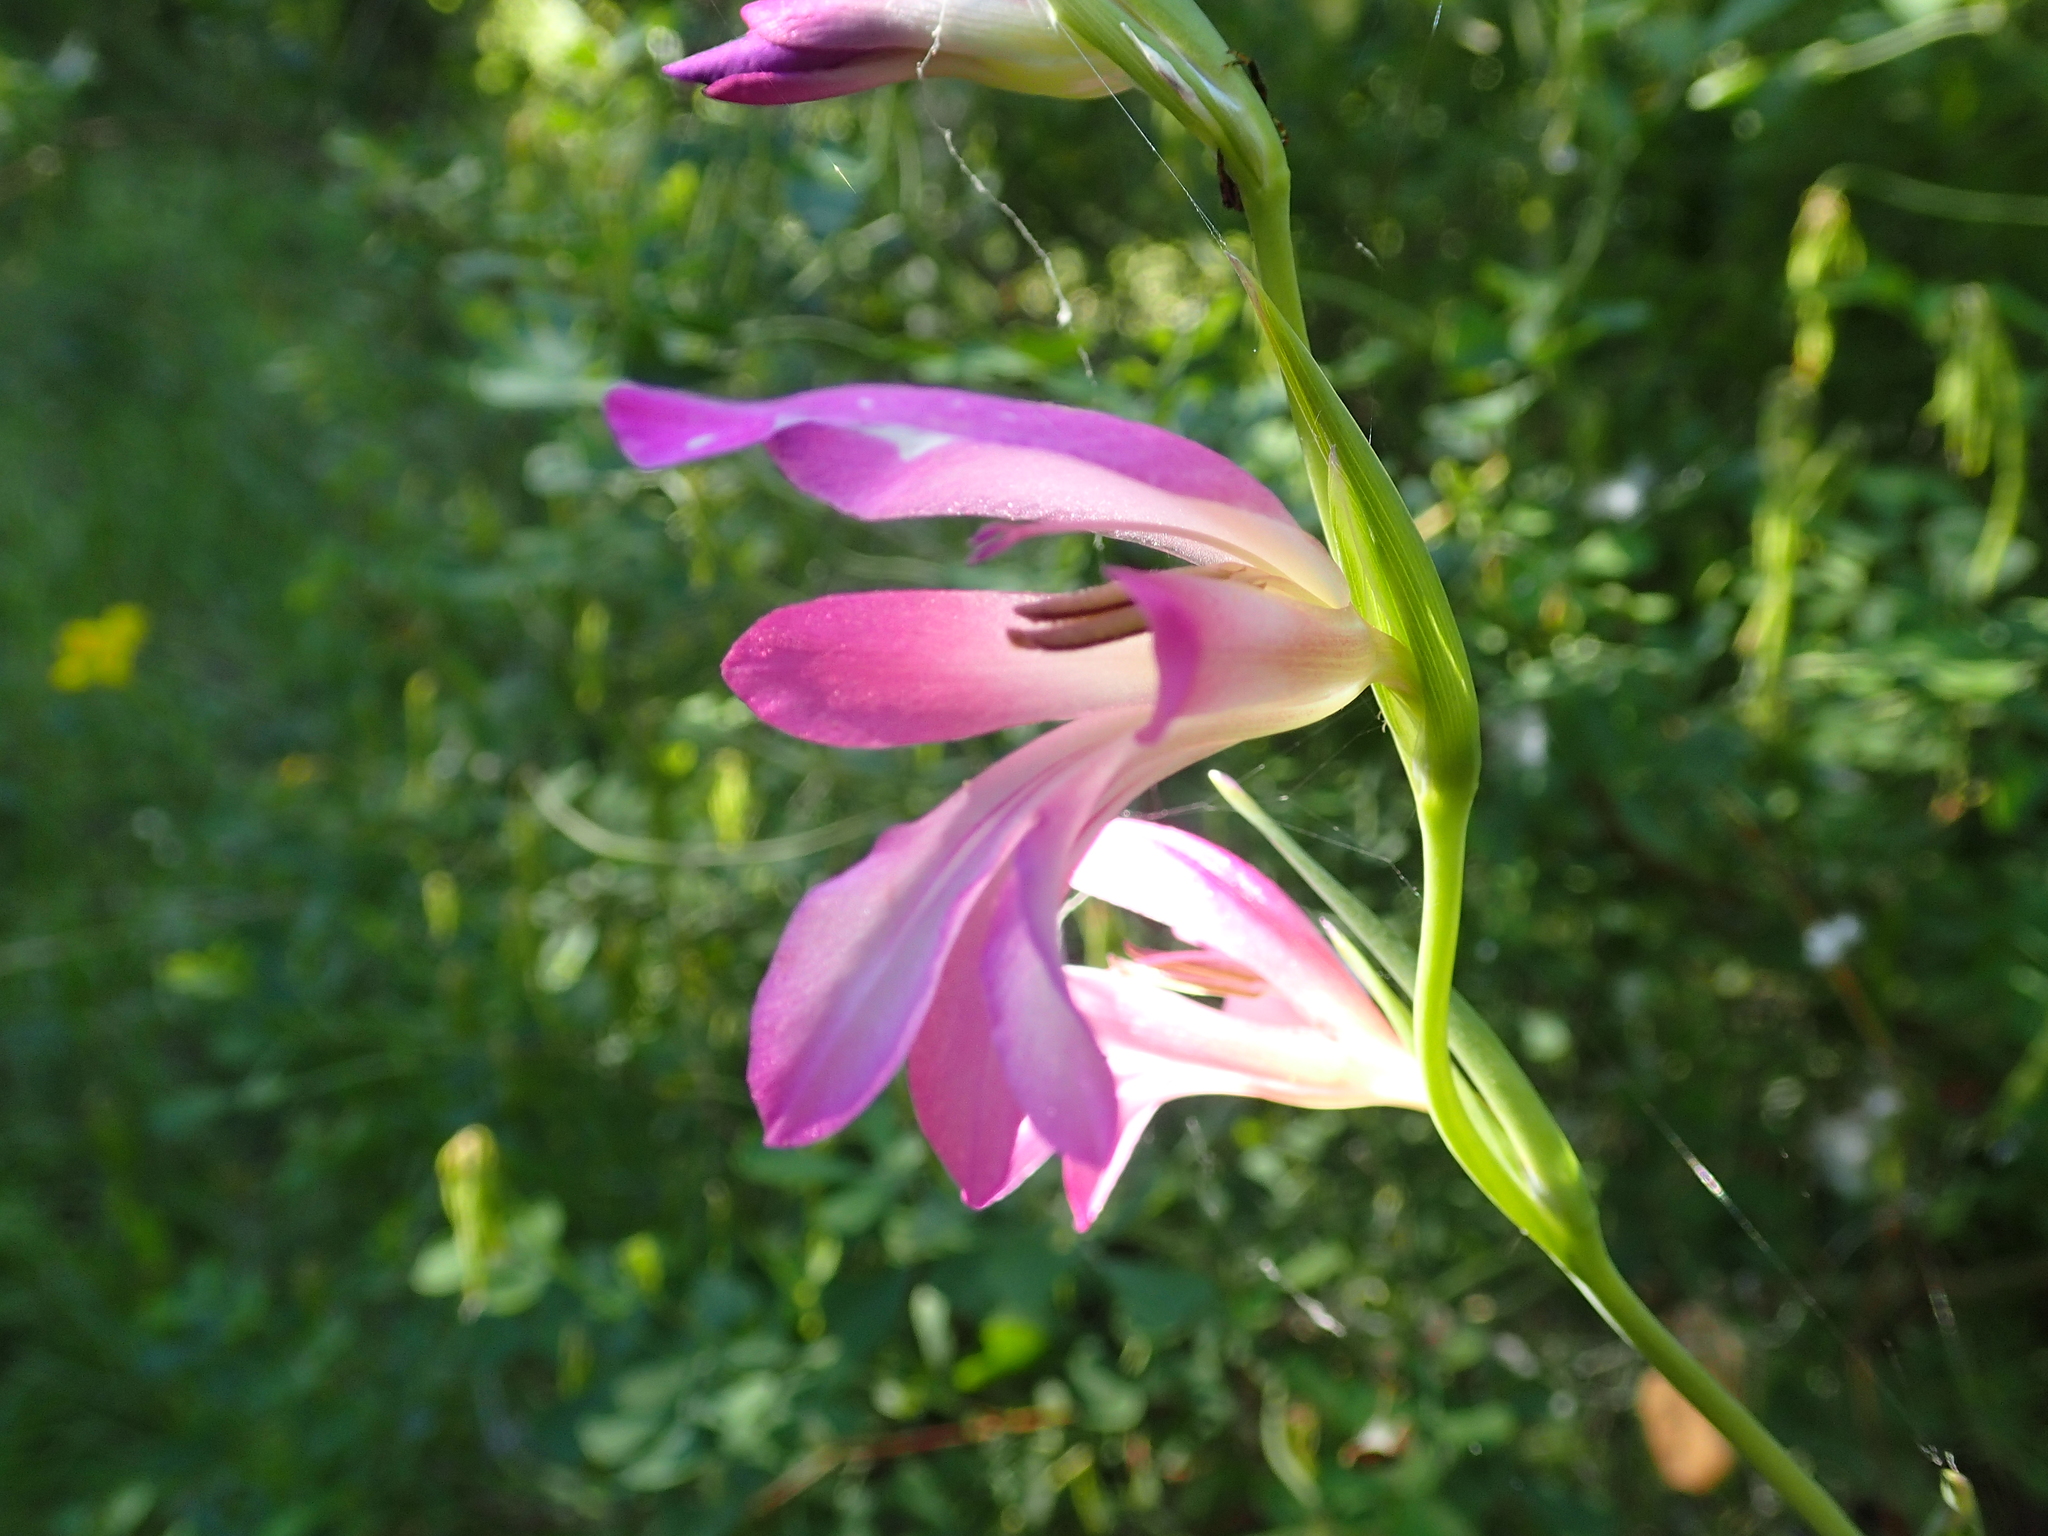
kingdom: Plantae
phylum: Tracheophyta
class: Liliopsida
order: Asparagales
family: Iridaceae
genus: Gladiolus
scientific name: Gladiolus italicus
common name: Field gladiolus
